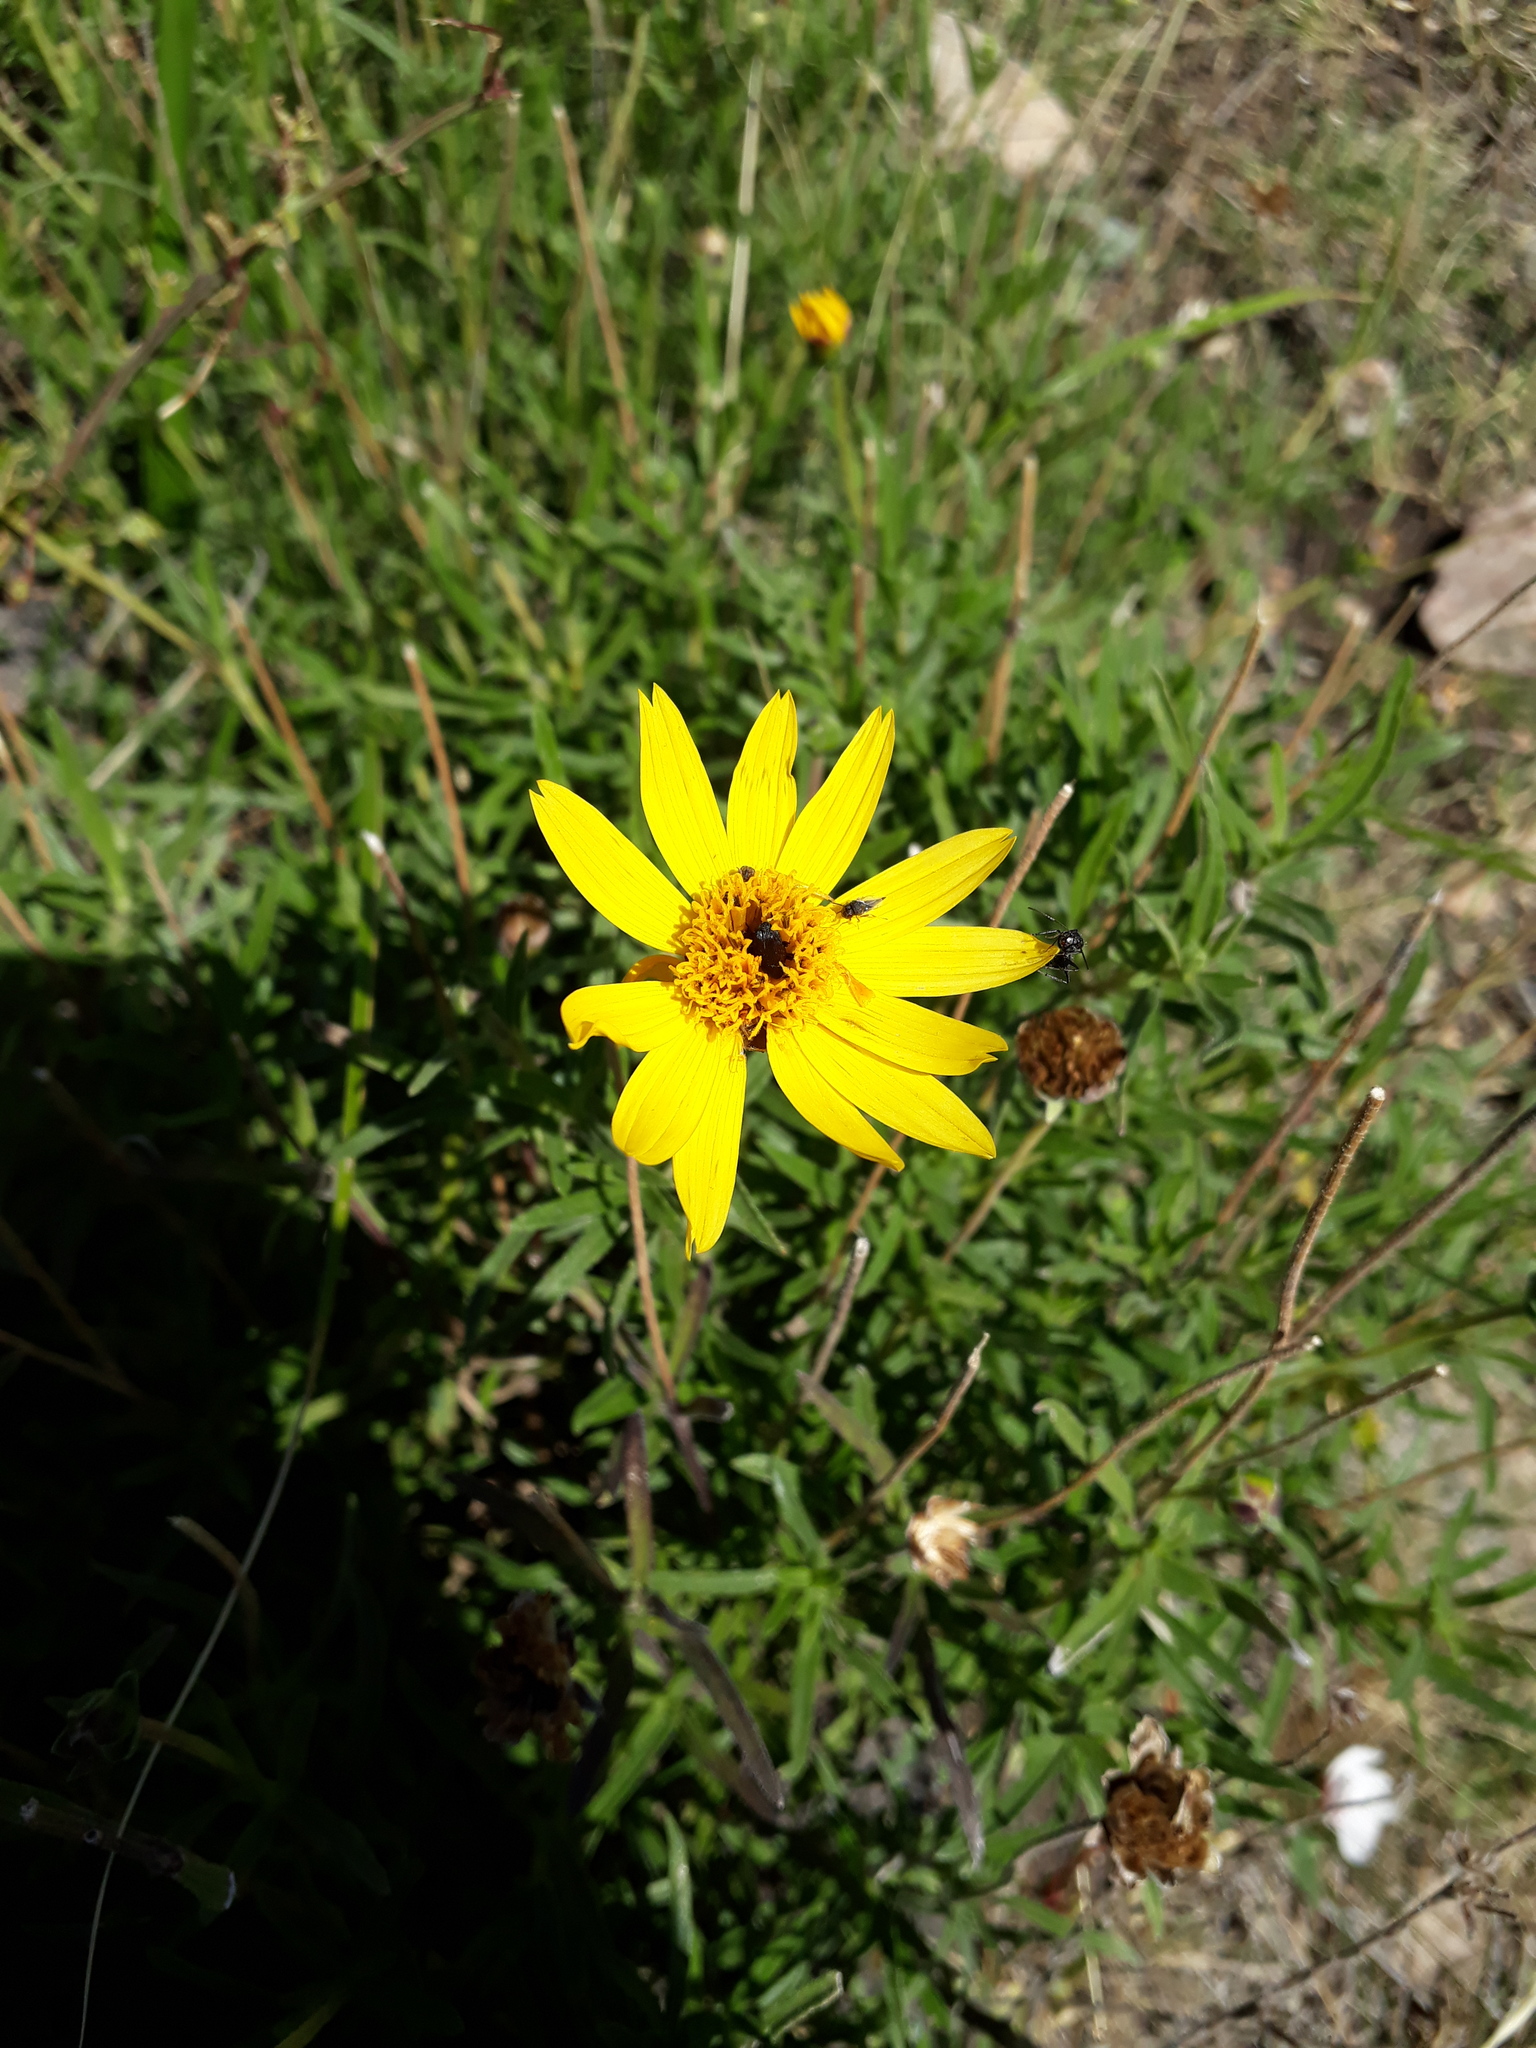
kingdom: Plantae
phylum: Tracheophyta
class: Magnoliopsida
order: Asterales
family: Asteraceae
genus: Zexmenia
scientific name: Zexmenia buphtalmiflora
